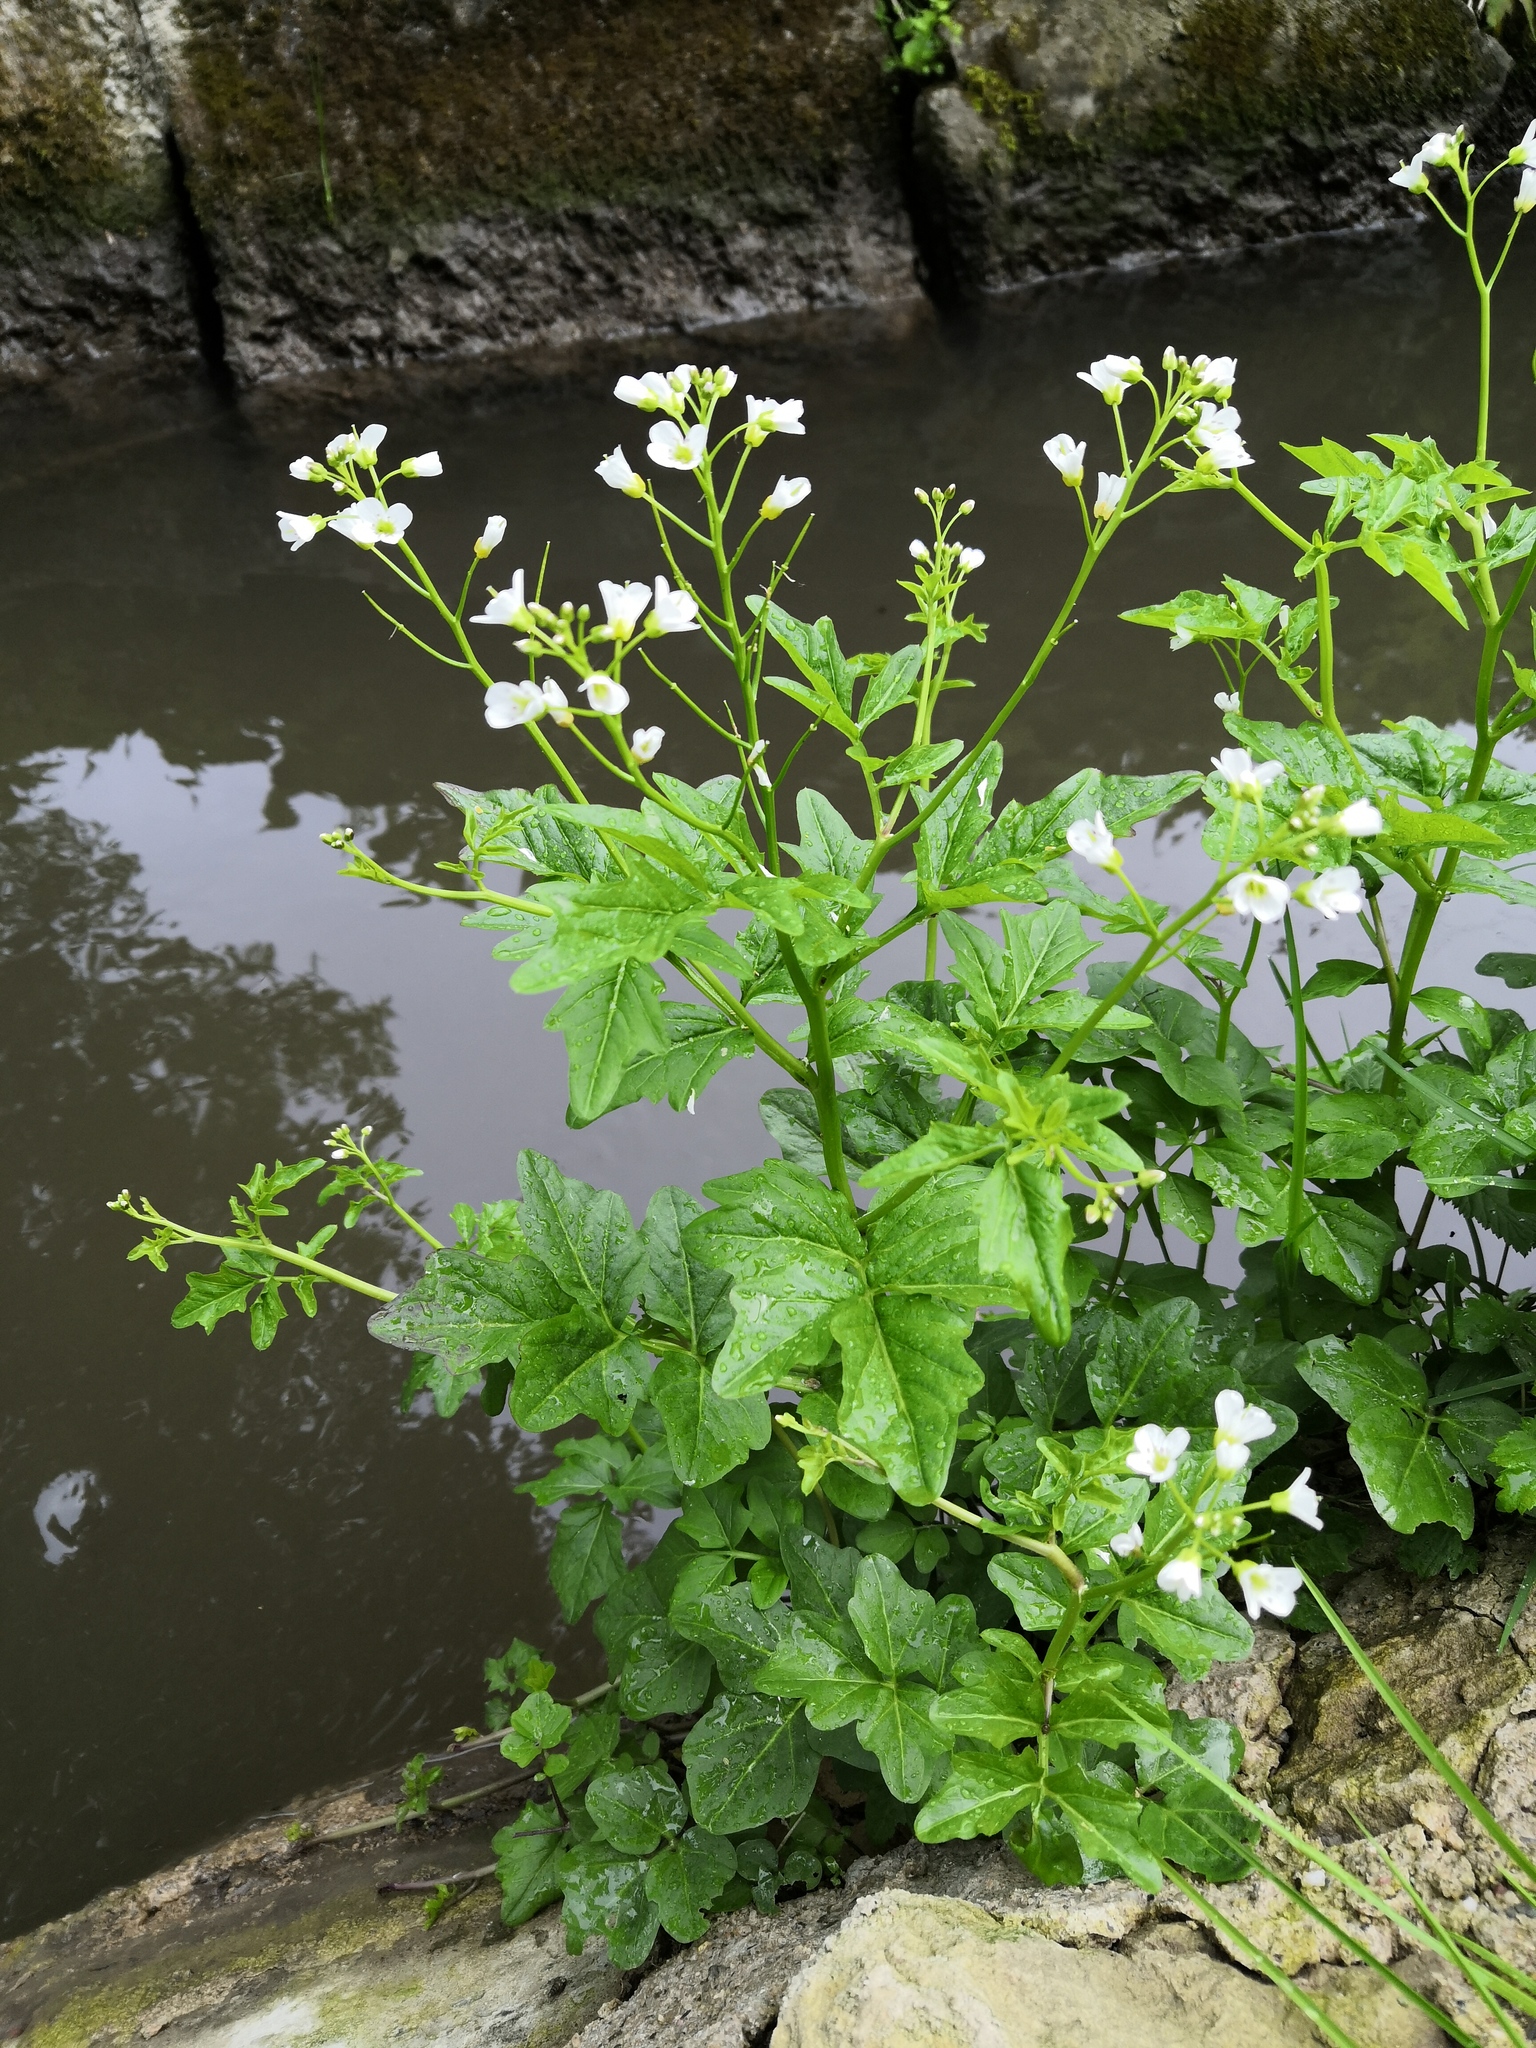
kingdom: Plantae
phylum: Tracheophyta
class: Magnoliopsida
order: Brassicales
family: Brassicaceae
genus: Cardamine
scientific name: Cardamine amara
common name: Large bitter-cress
